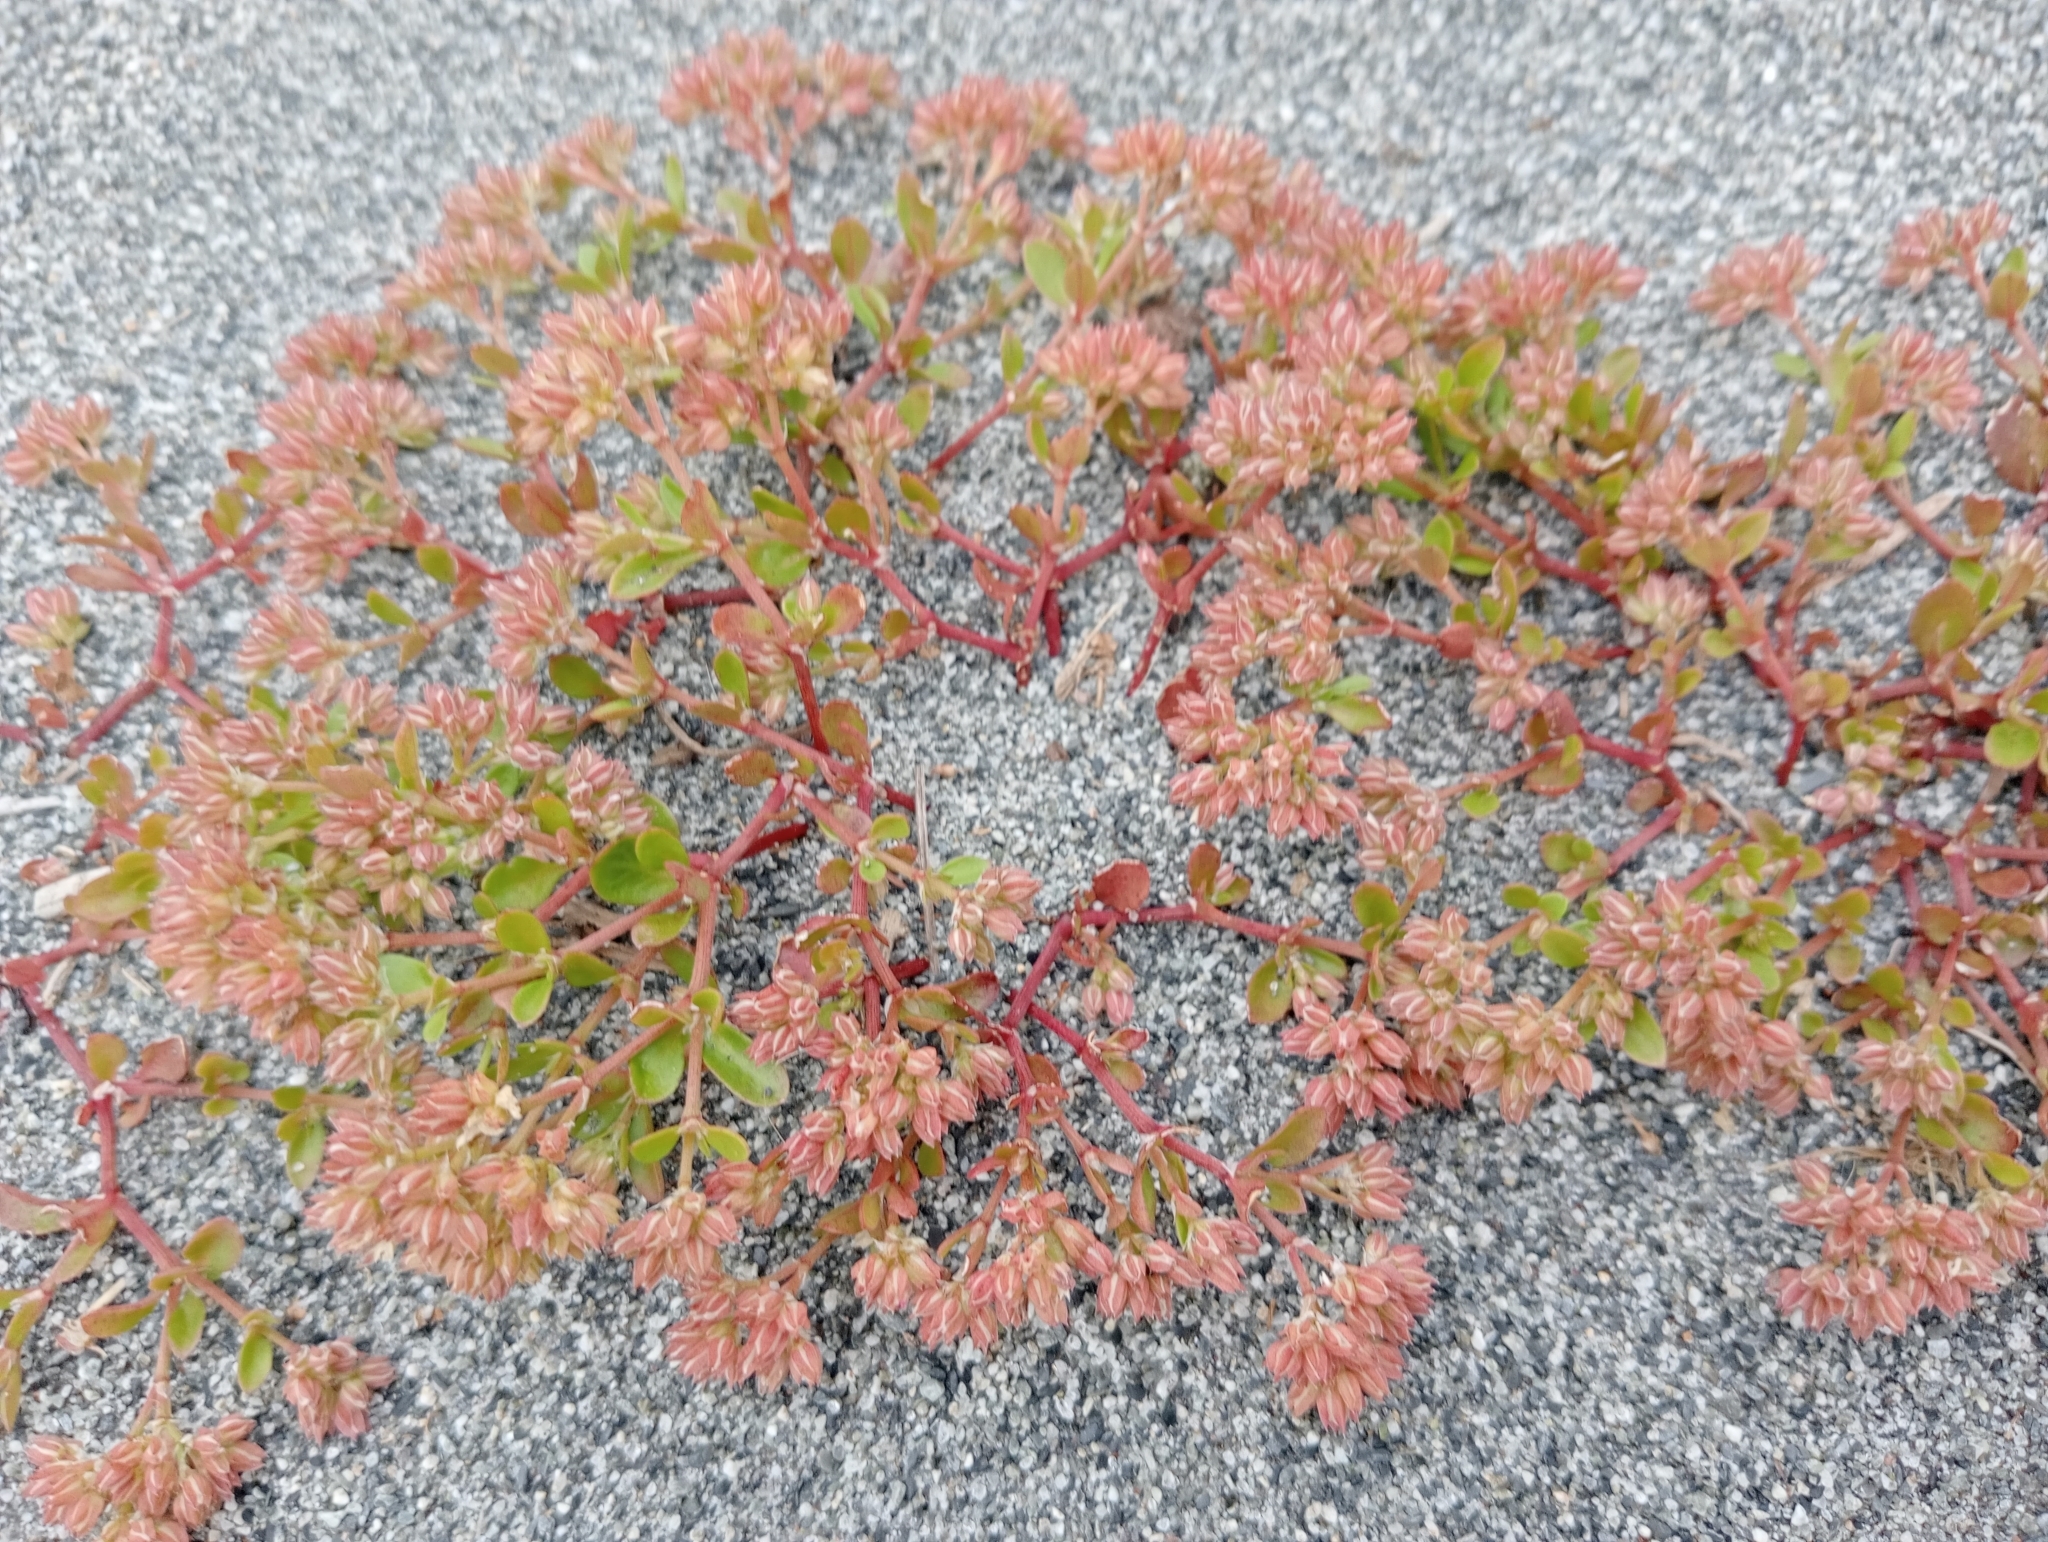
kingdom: Plantae
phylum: Tracheophyta
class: Magnoliopsida
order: Caryophyllales
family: Caryophyllaceae
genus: Polycarpon
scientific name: Polycarpon tetraphyllum
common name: Four-leaved all-seed
